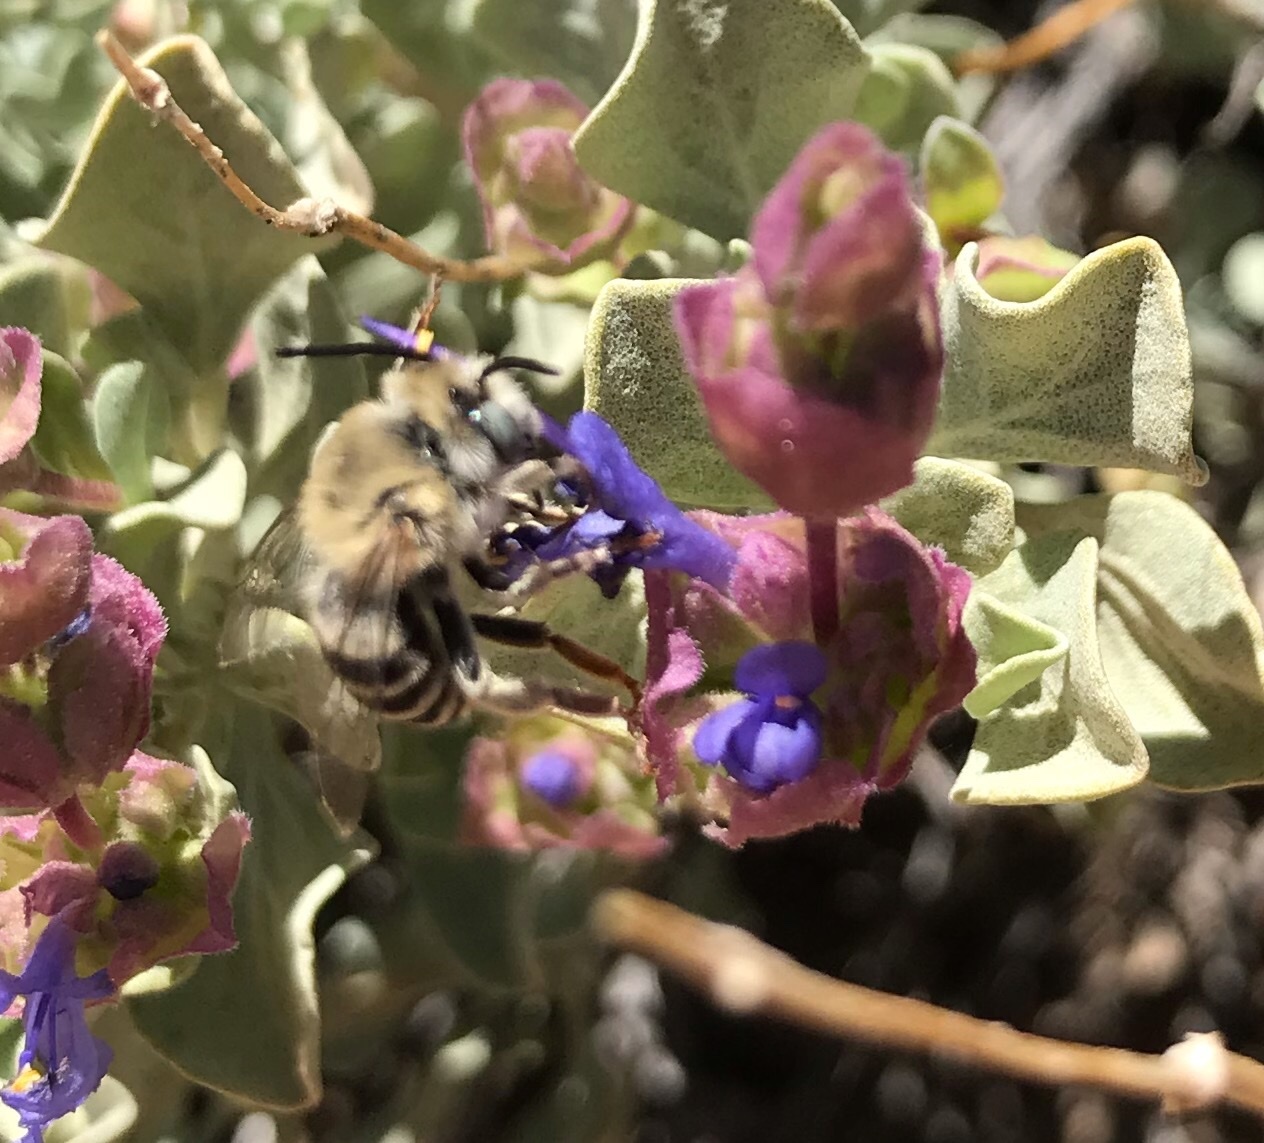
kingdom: Plantae
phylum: Tracheophyta
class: Magnoliopsida
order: Lamiales
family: Lamiaceae
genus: Salvia
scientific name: Salvia dorrii
